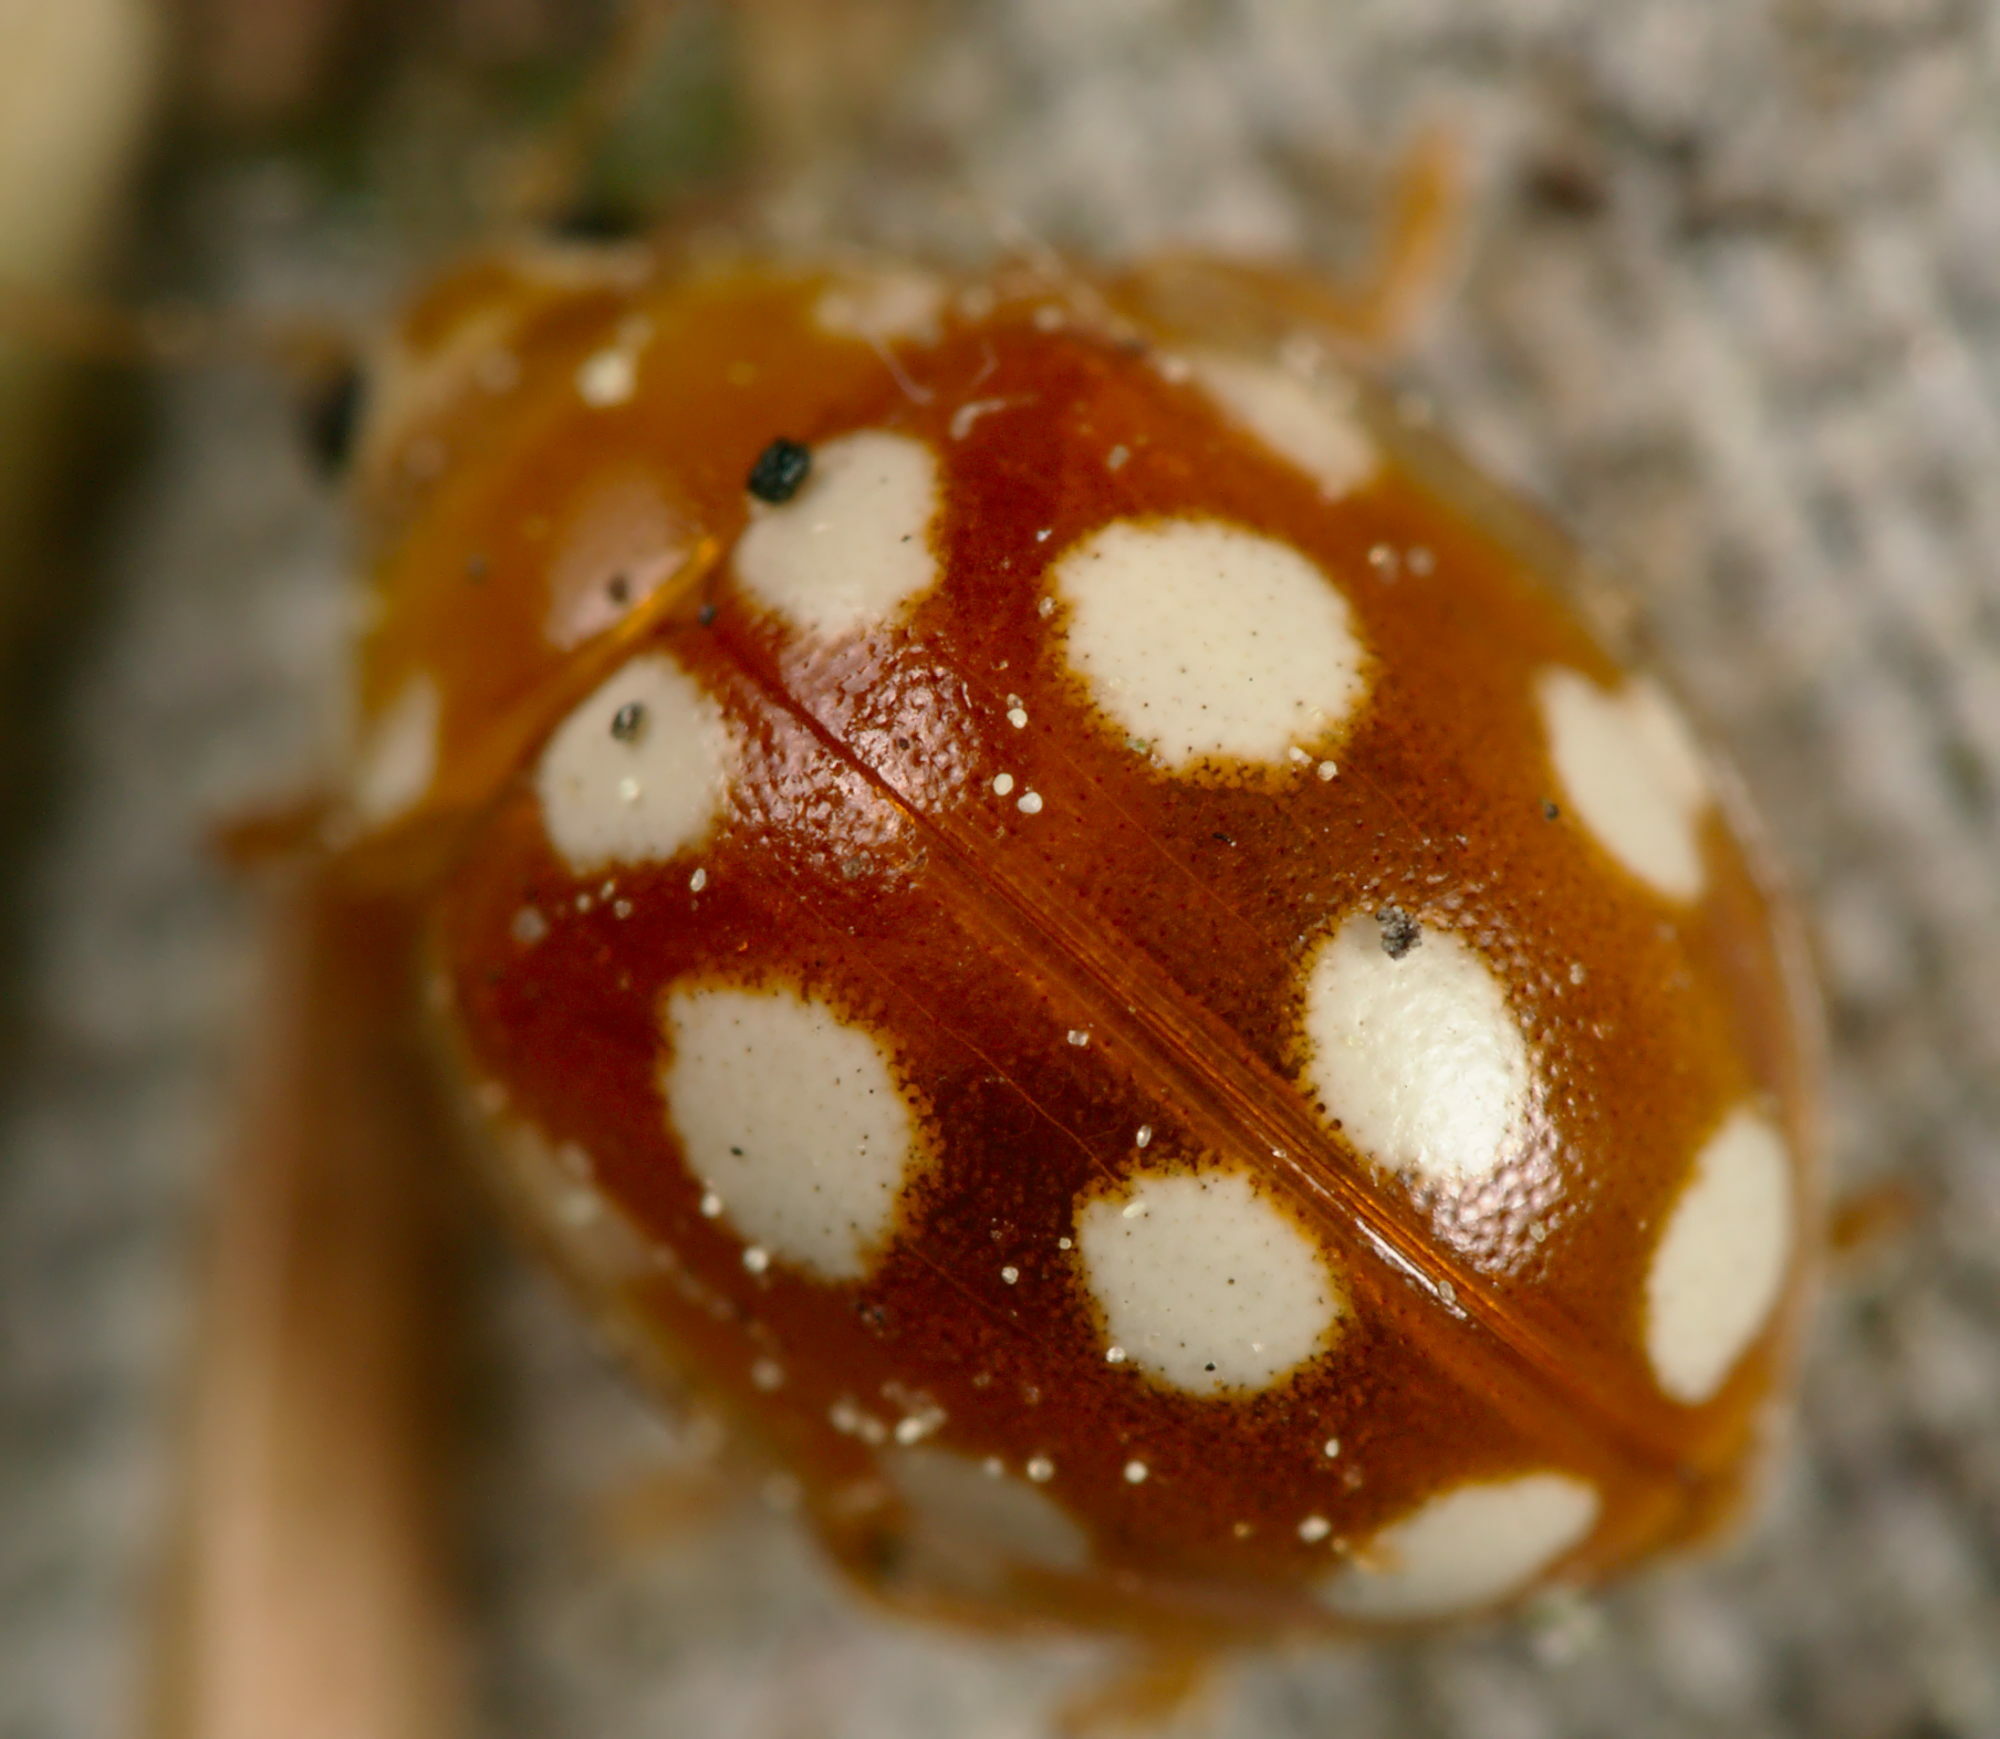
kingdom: Animalia
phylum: Arthropoda
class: Insecta
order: Coleoptera
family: Coccinellidae
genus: Vibidia
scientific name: Vibidia duodecimguttata
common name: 12-spot ladybird
